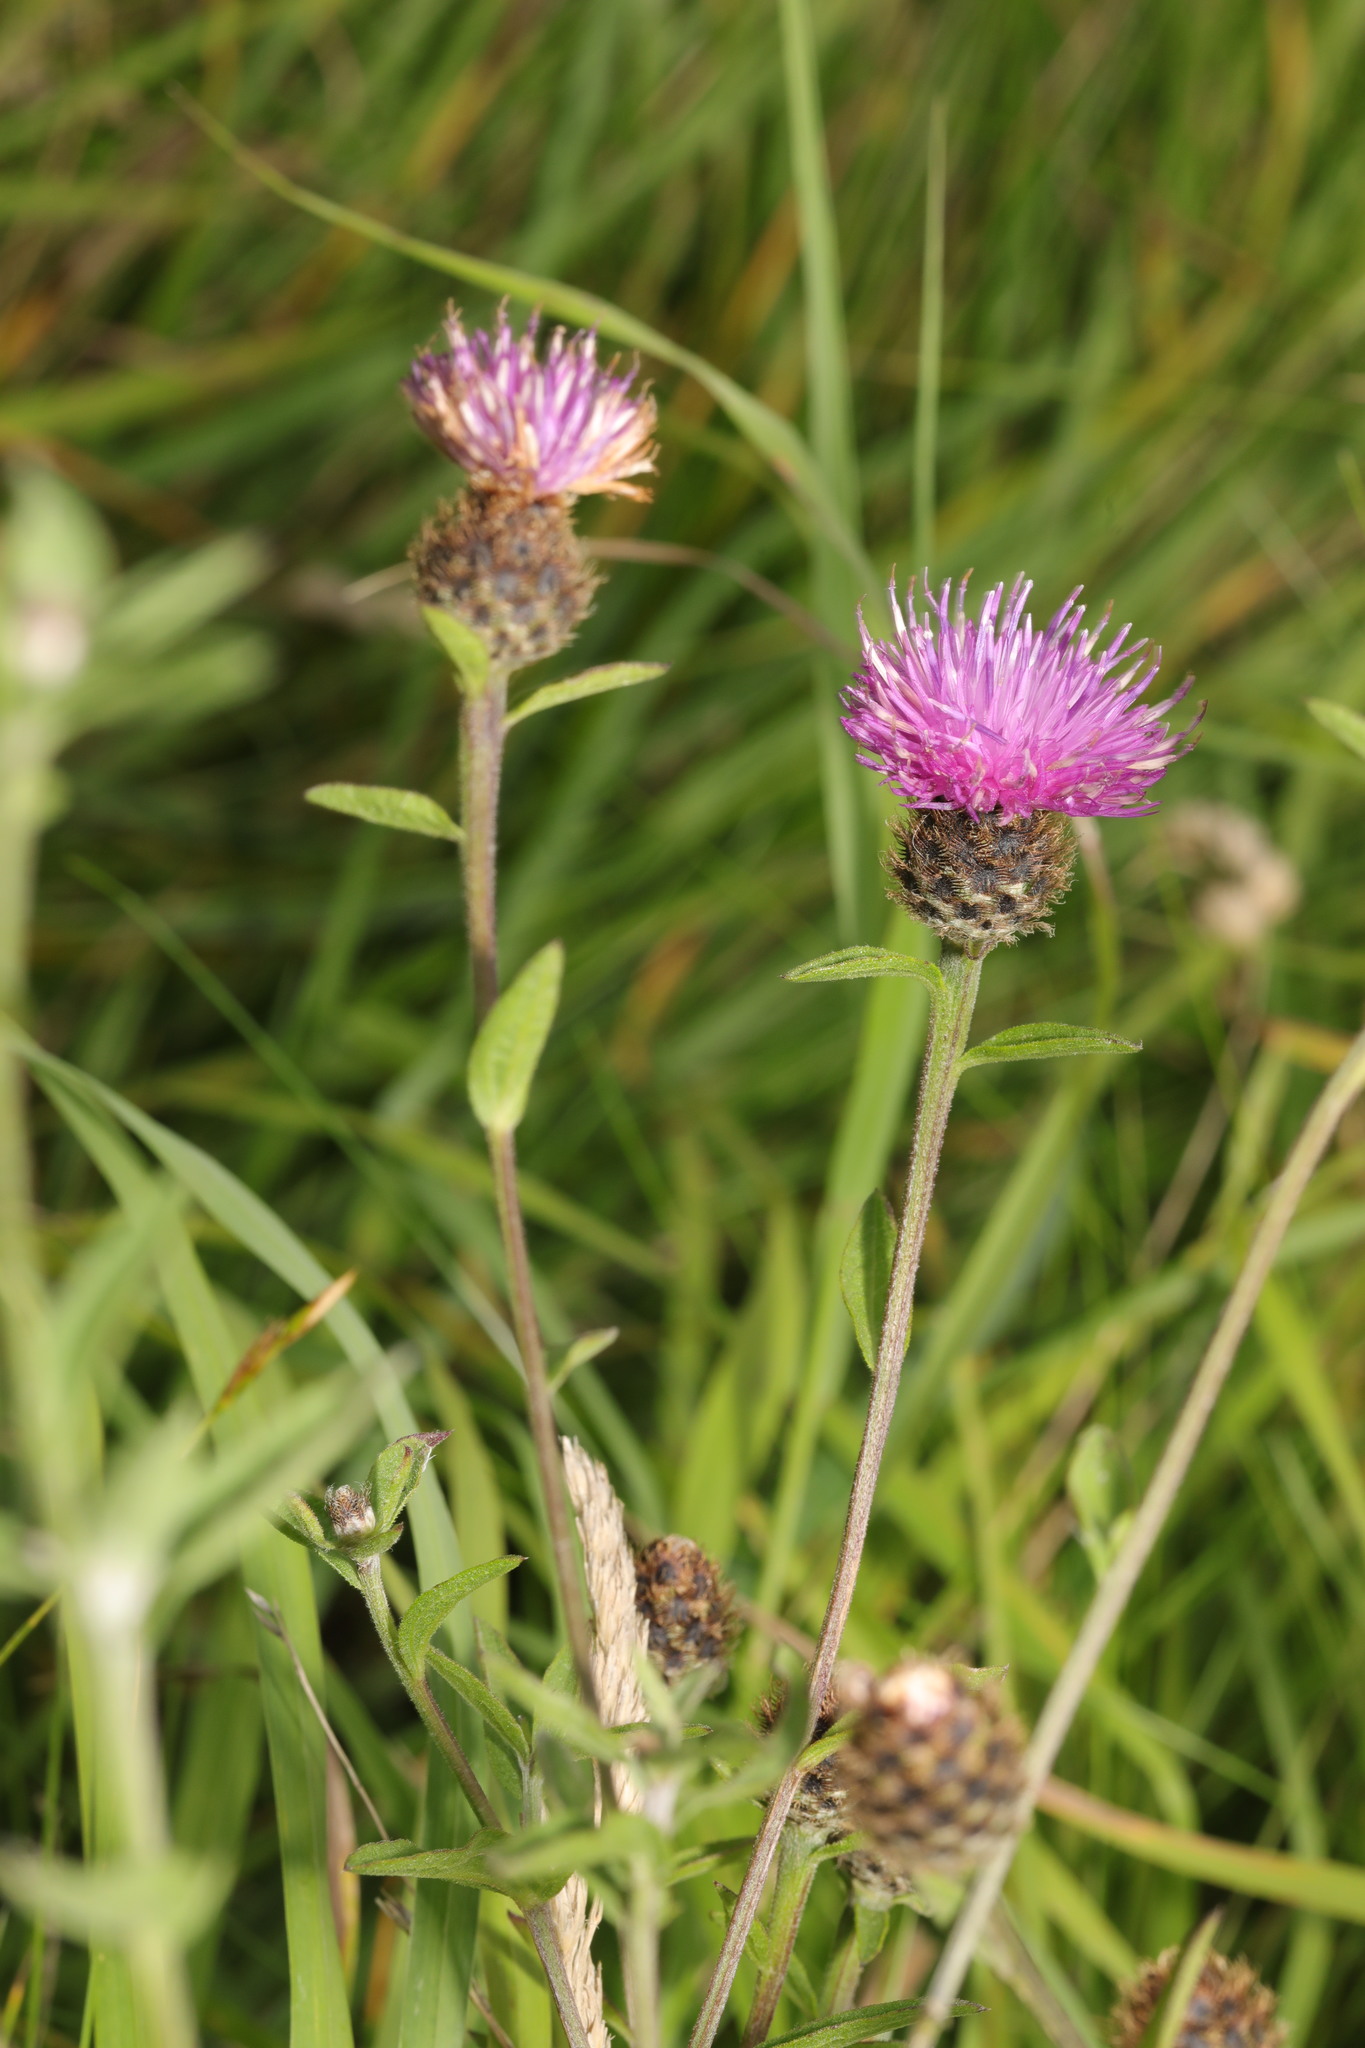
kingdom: Plantae
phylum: Tracheophyta
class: Magnoliopsida
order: Asterales
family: Asteraceae
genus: Centaurea
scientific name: Centaurea nigra
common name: Lesser knapweed
